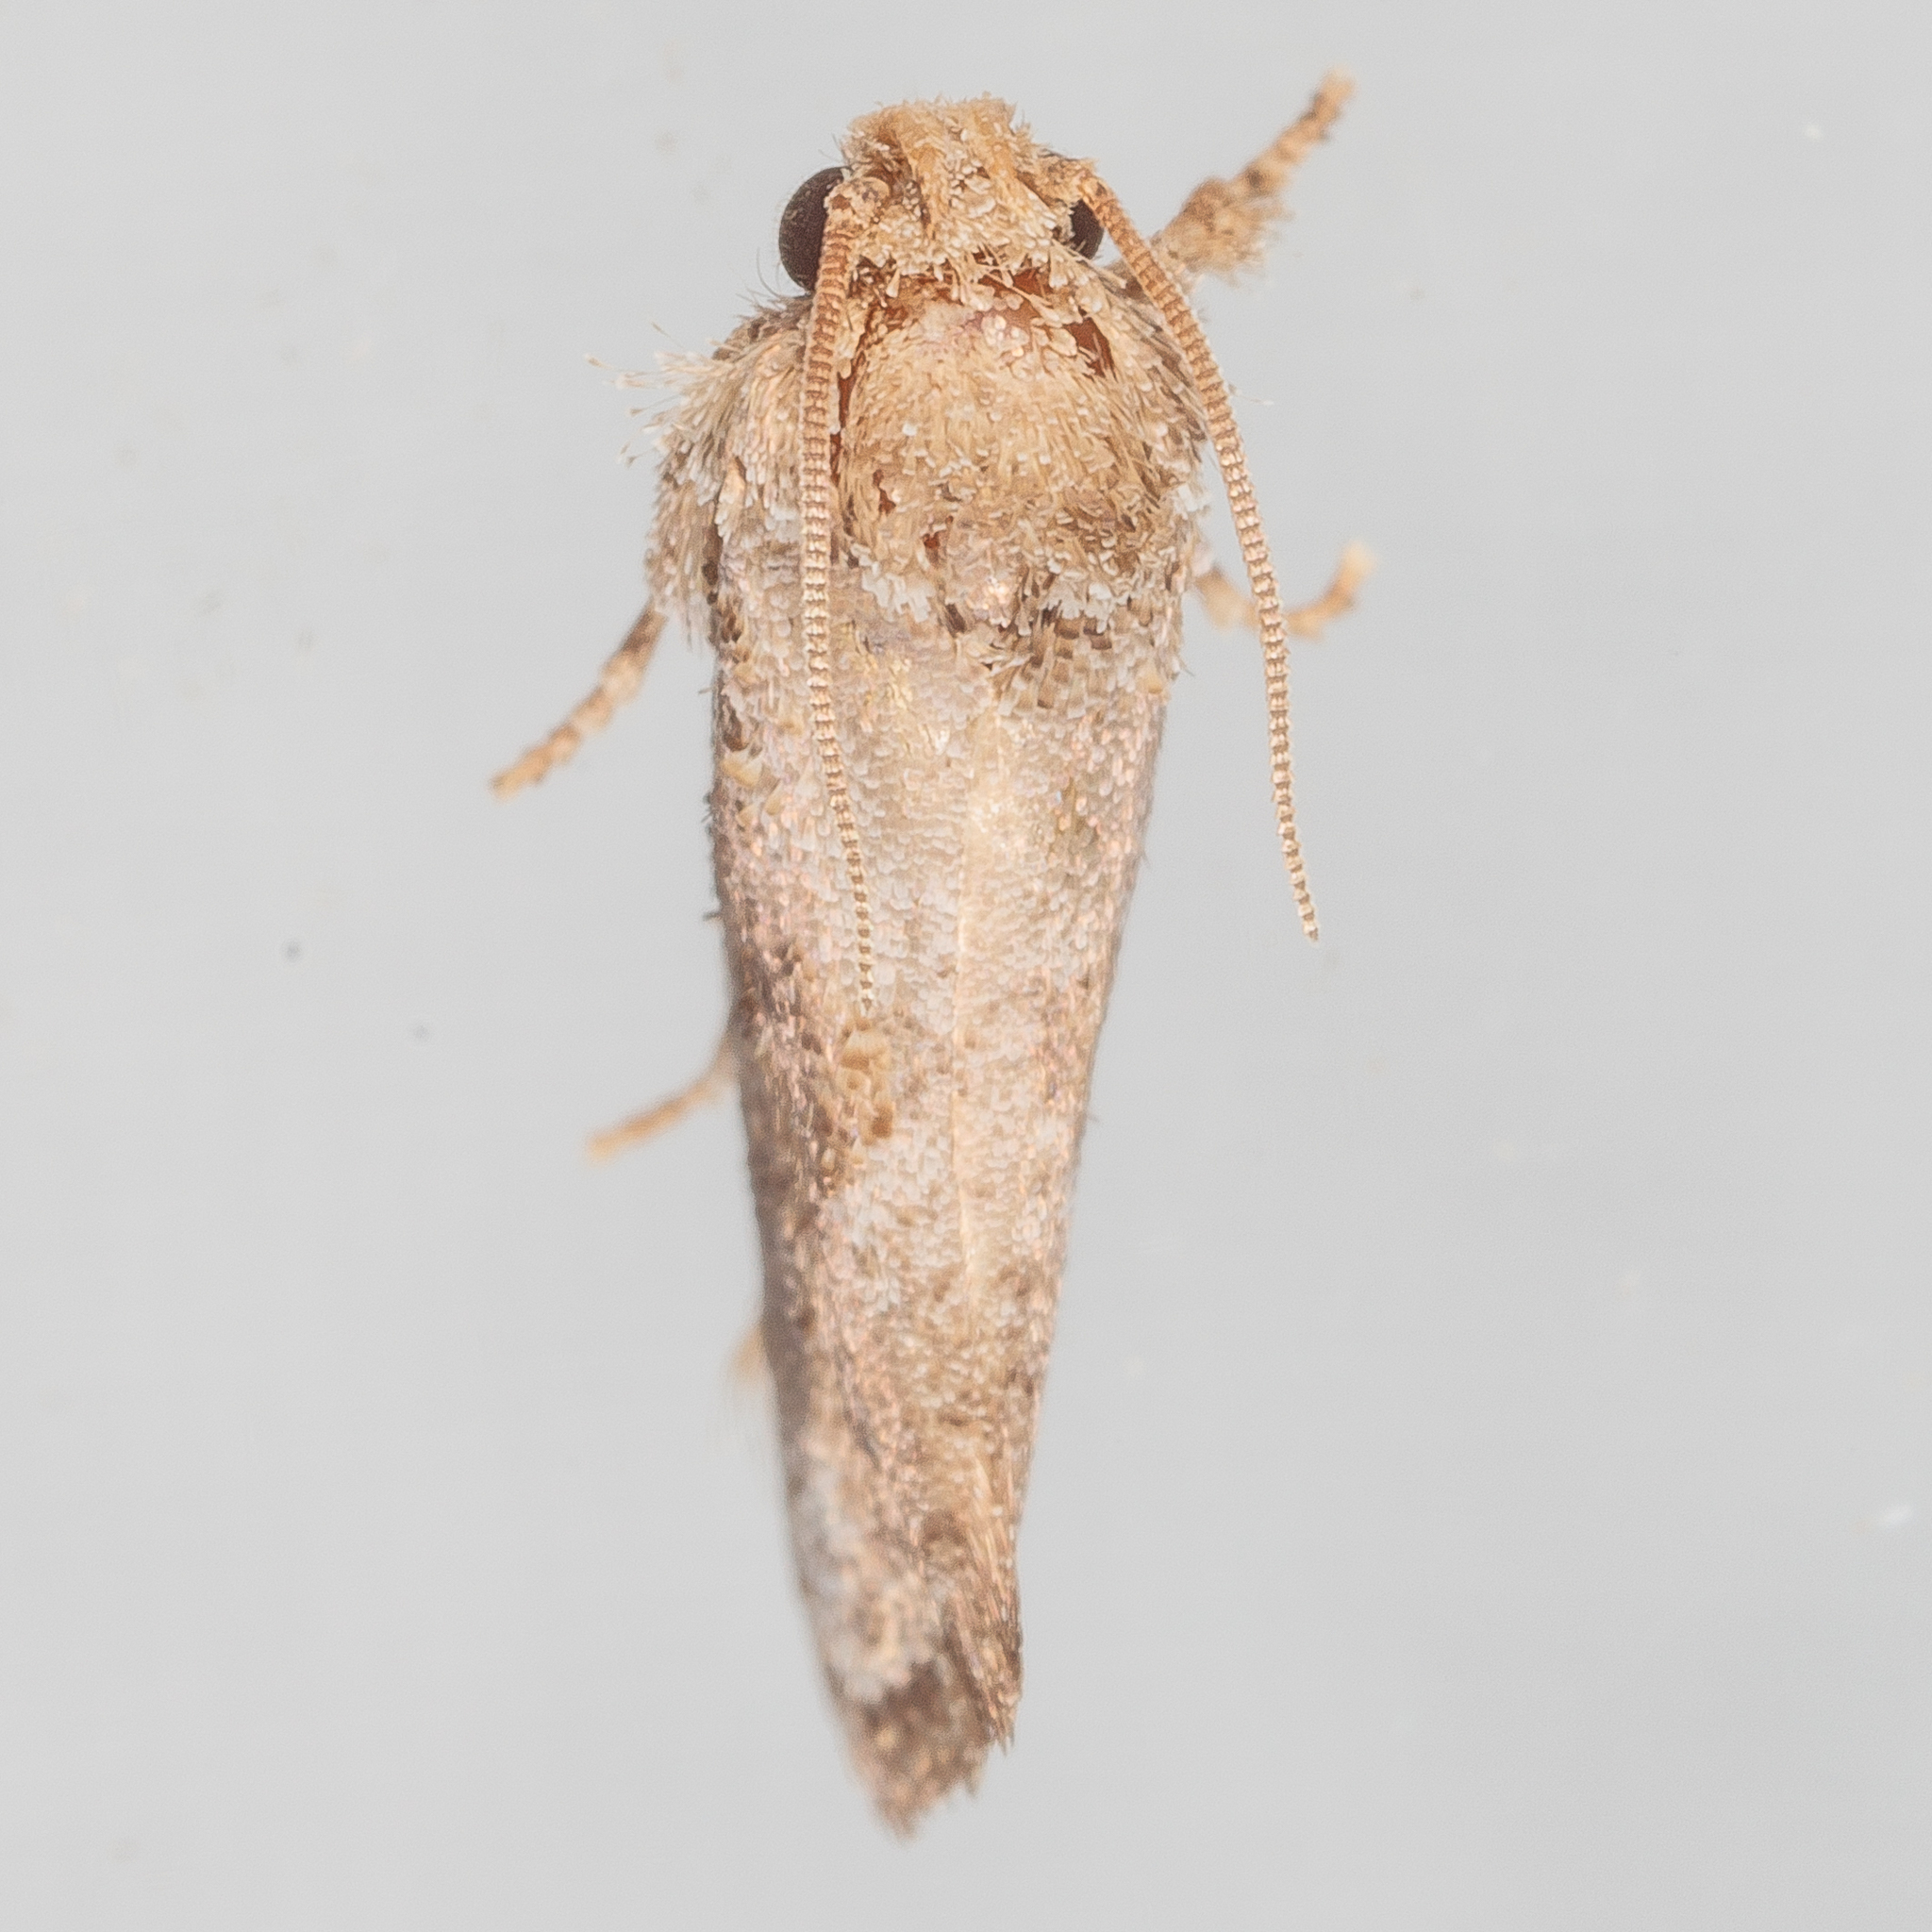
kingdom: Animalia
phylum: Arthropoda
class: Insecta
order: Lepidoptera
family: Tineidae
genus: Acrolophus
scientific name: Acrolophus piger
